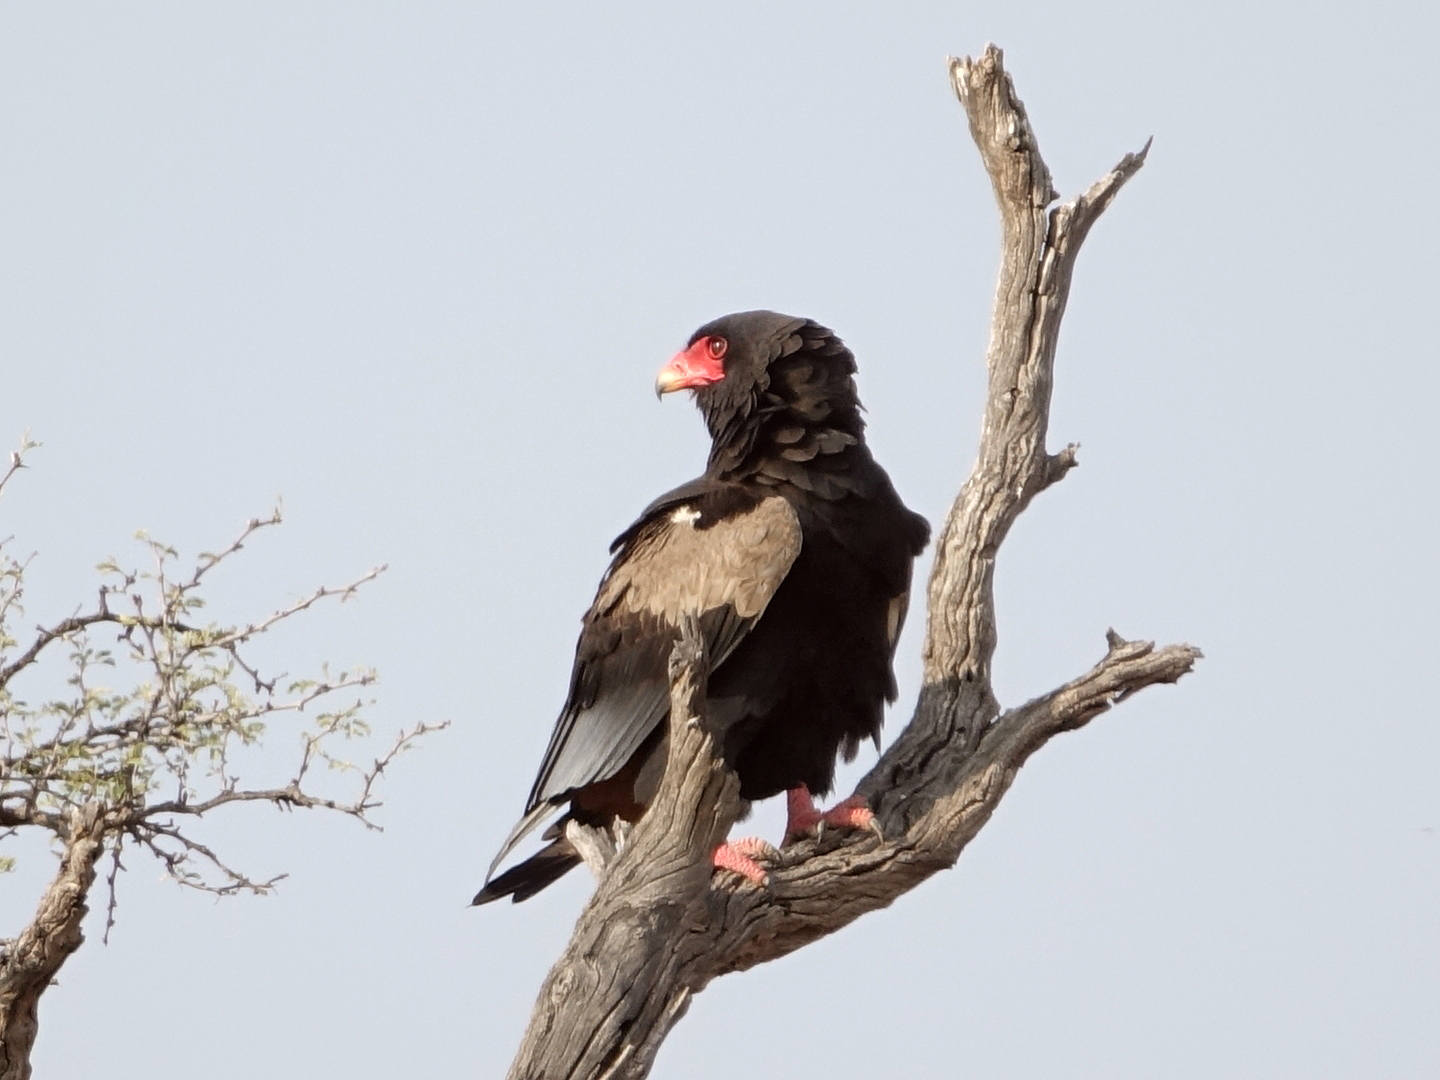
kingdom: Animalia
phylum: Chordata
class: Aves
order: Accipitriformes
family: Accipitridae
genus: Terathopius
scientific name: Terathopius ecaudatus
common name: Bateleur
